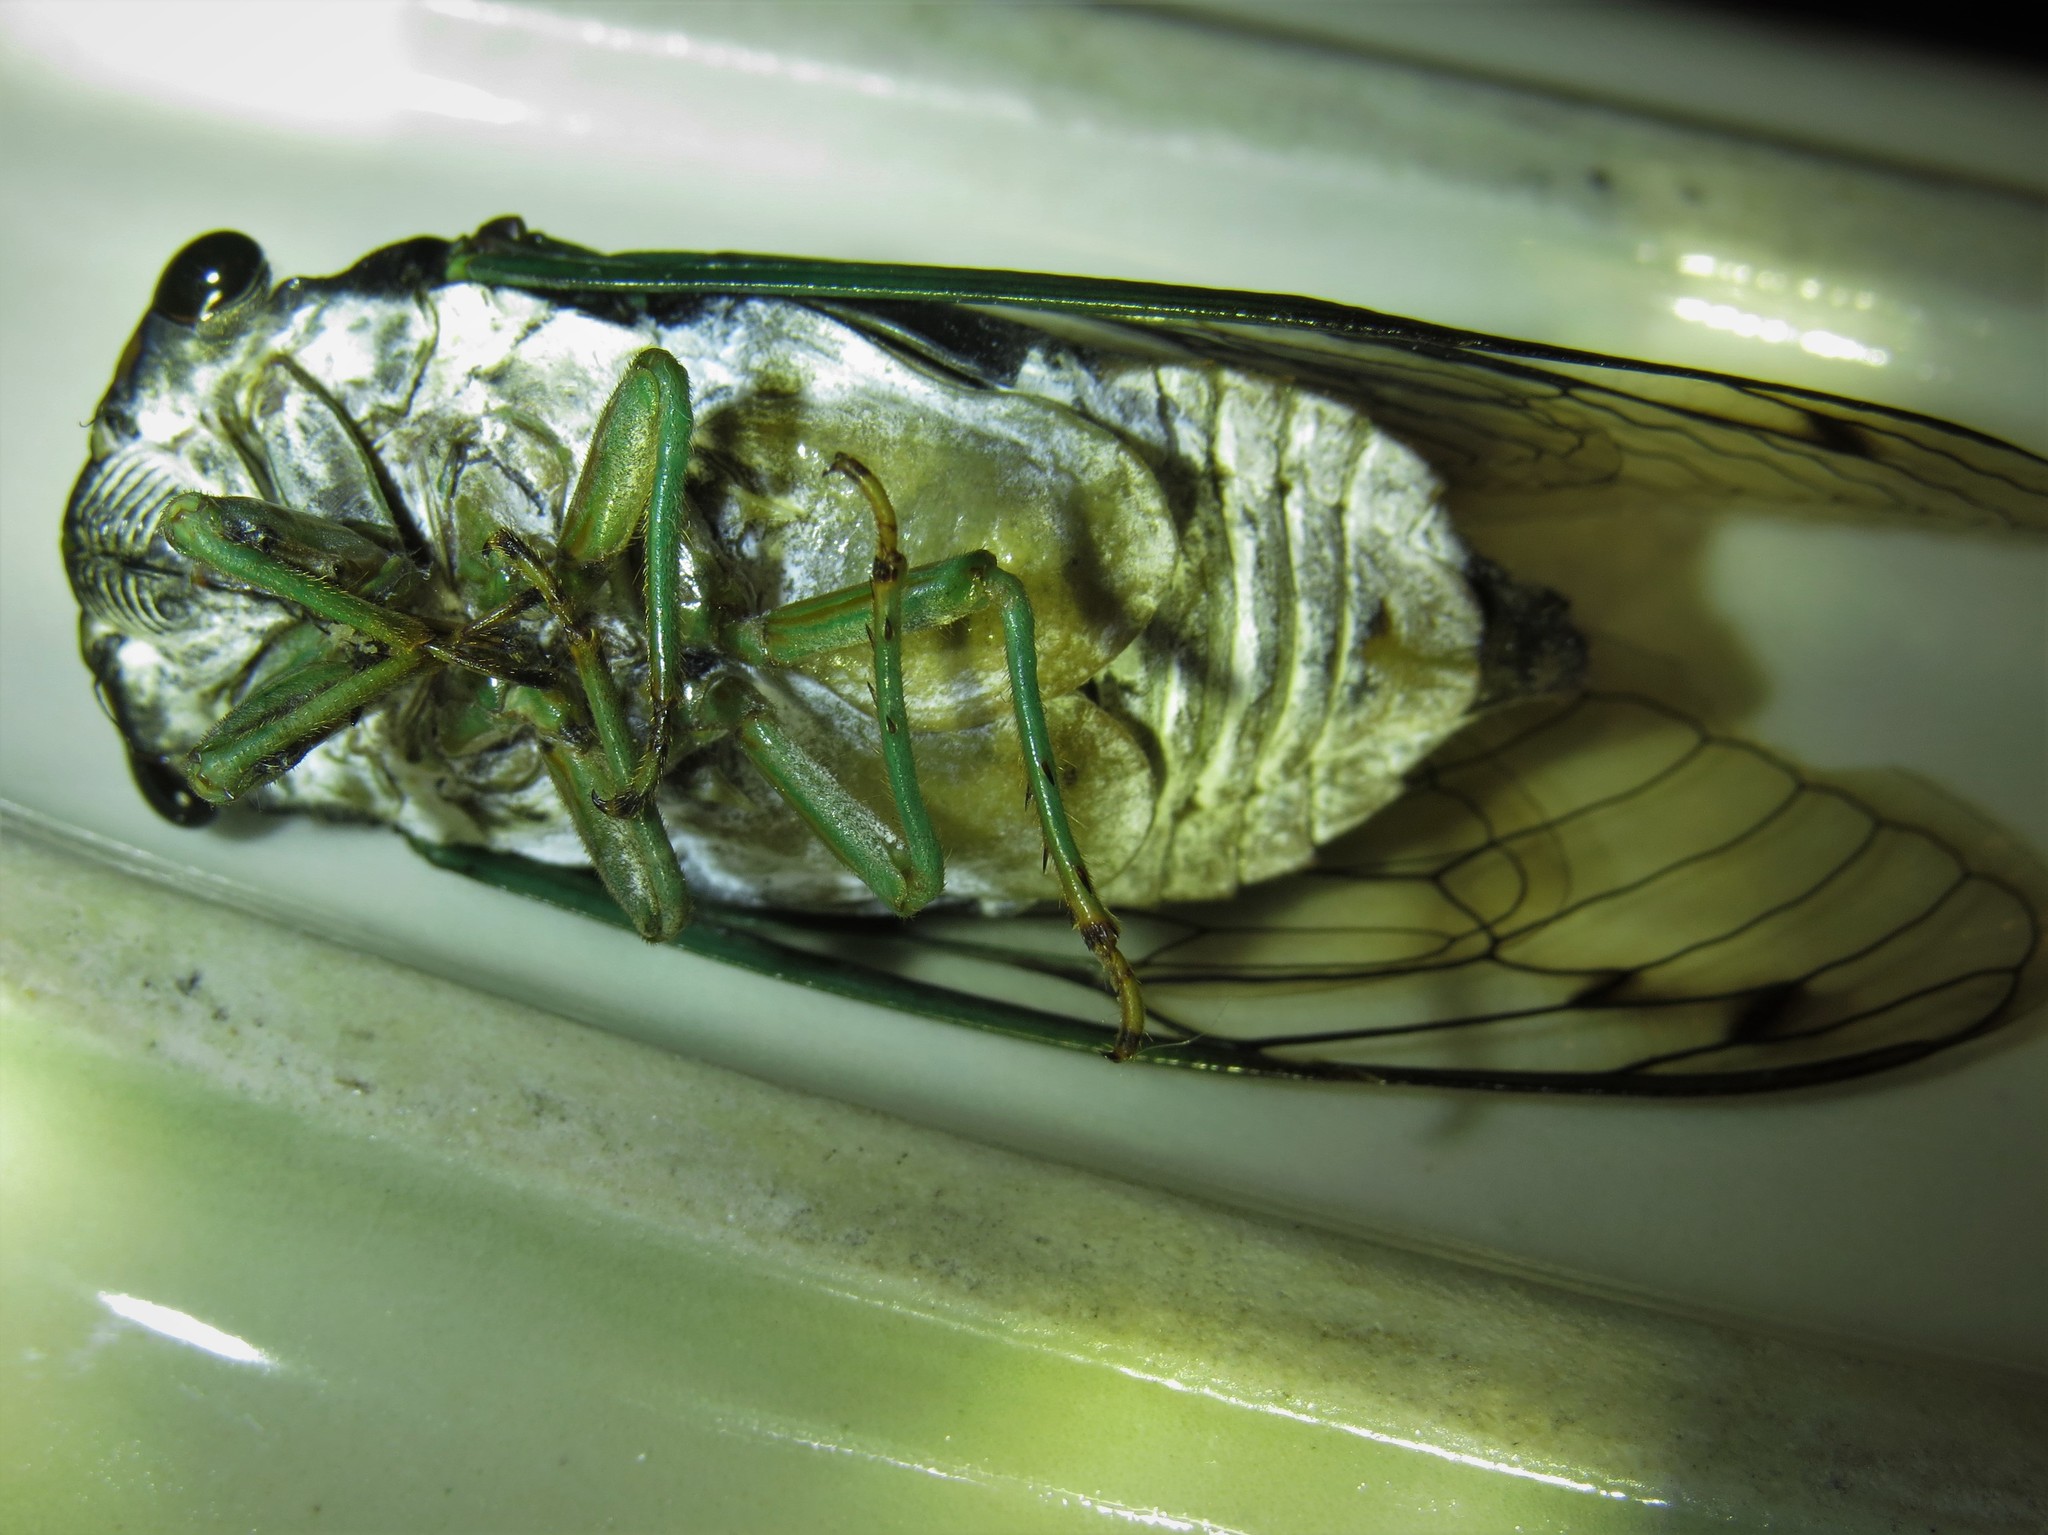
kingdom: Animalia
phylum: Arthropoda
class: Insecta
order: Hemiptera
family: Cicadidae
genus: Neotibicen
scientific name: Neotibicen tibicen
